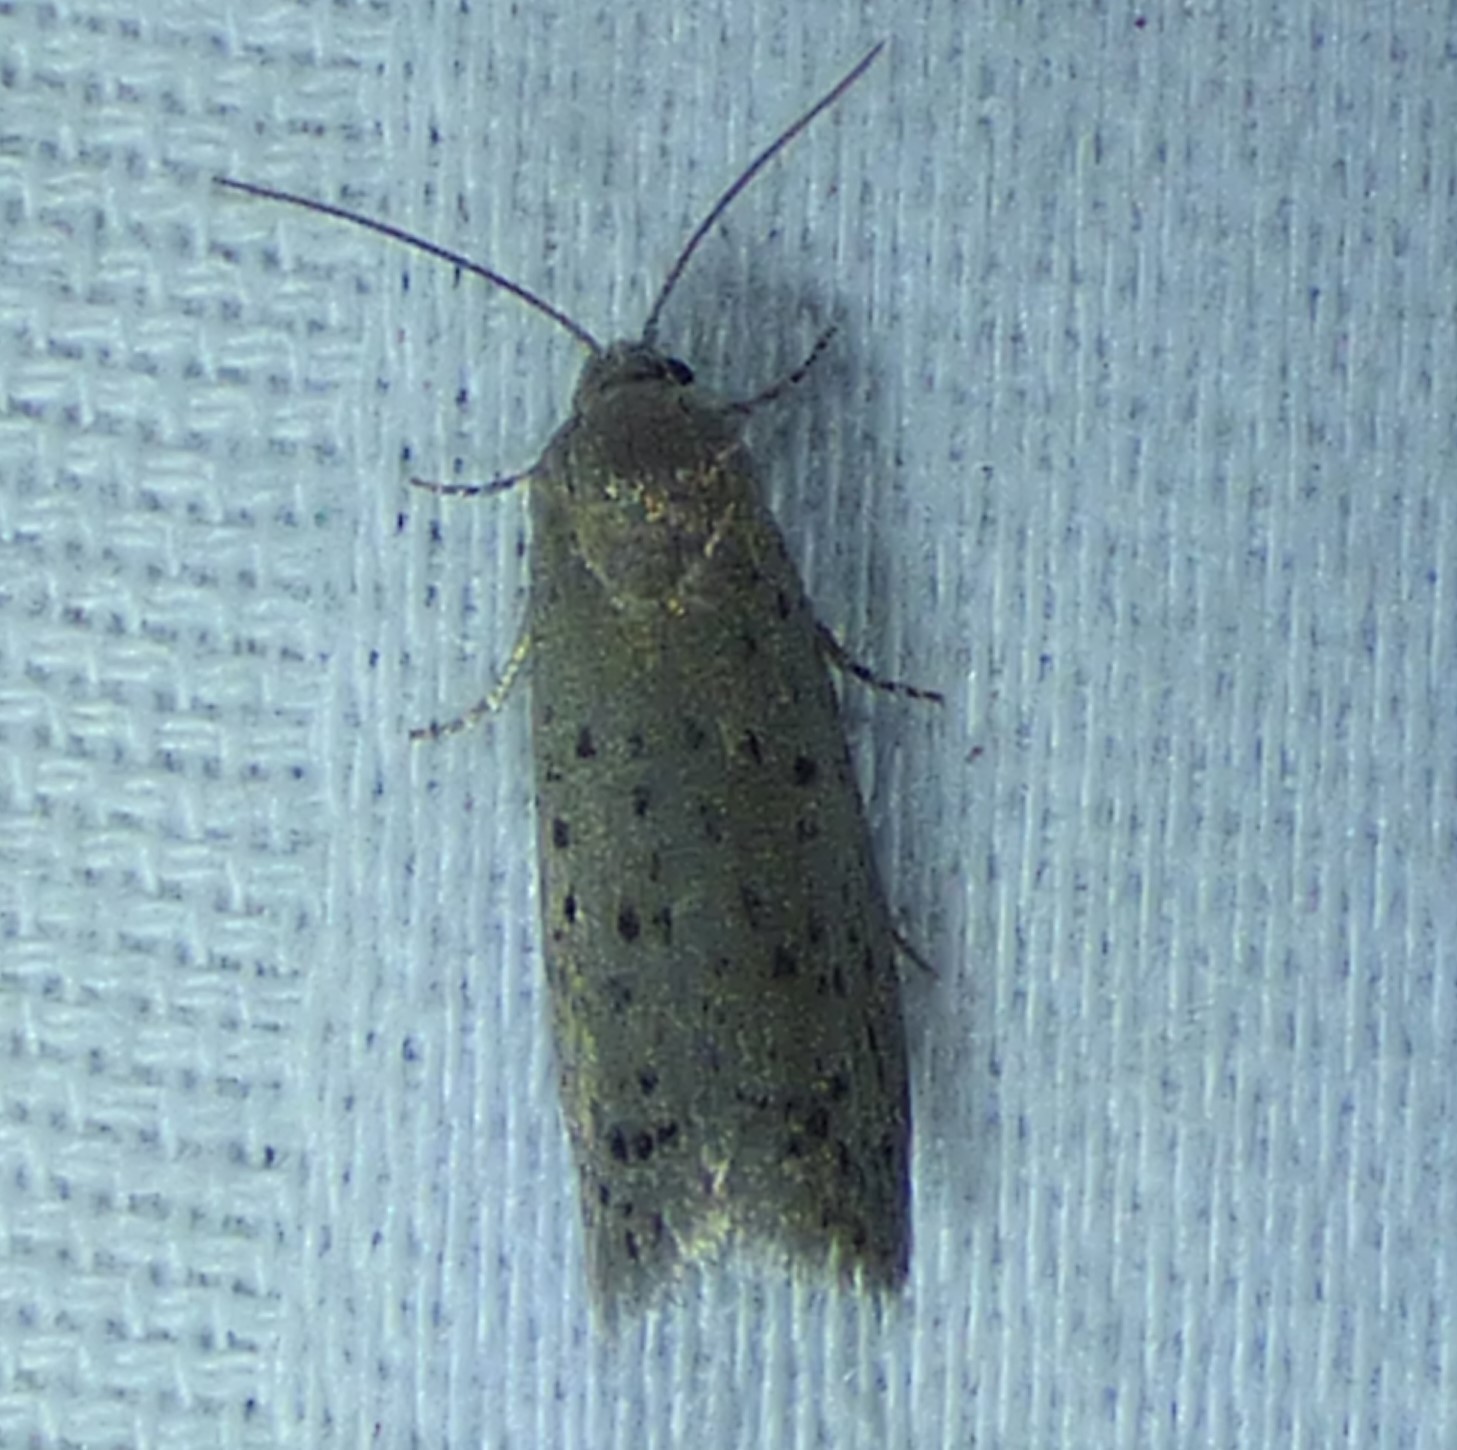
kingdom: Animalia
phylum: Arthropoda
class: Insecta
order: Lepidoptera
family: Galacticidae
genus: Homadaula
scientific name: Homadaula anisocentra
